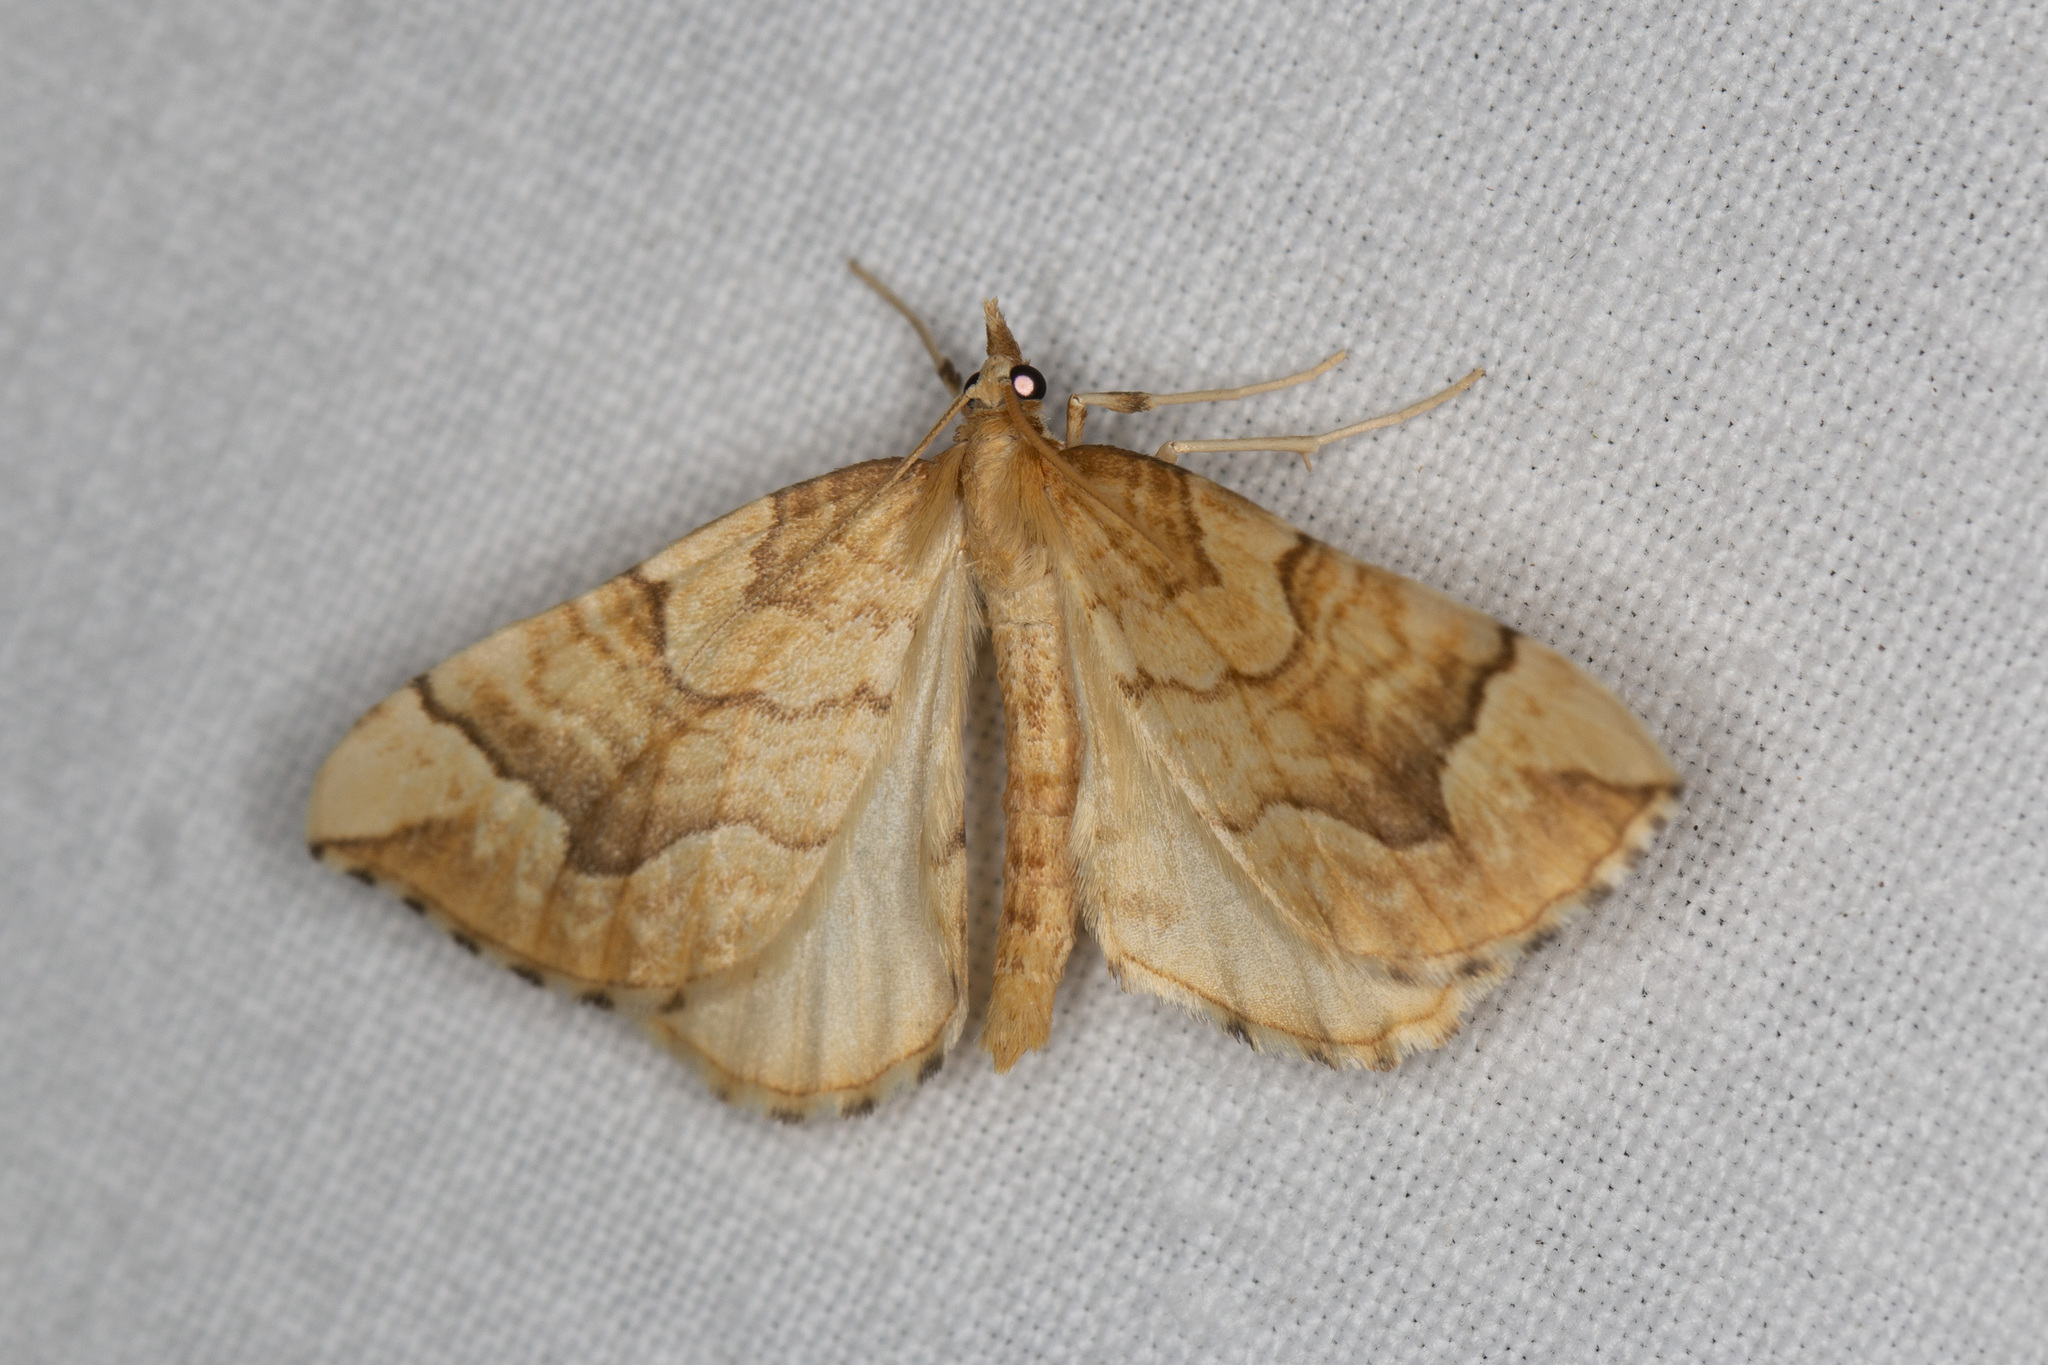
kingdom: Animalia
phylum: Arthropoda
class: Insecta
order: Lepidoptera
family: Geometridae
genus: Eulithis
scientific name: Eulithis mellinata
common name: Spinach
